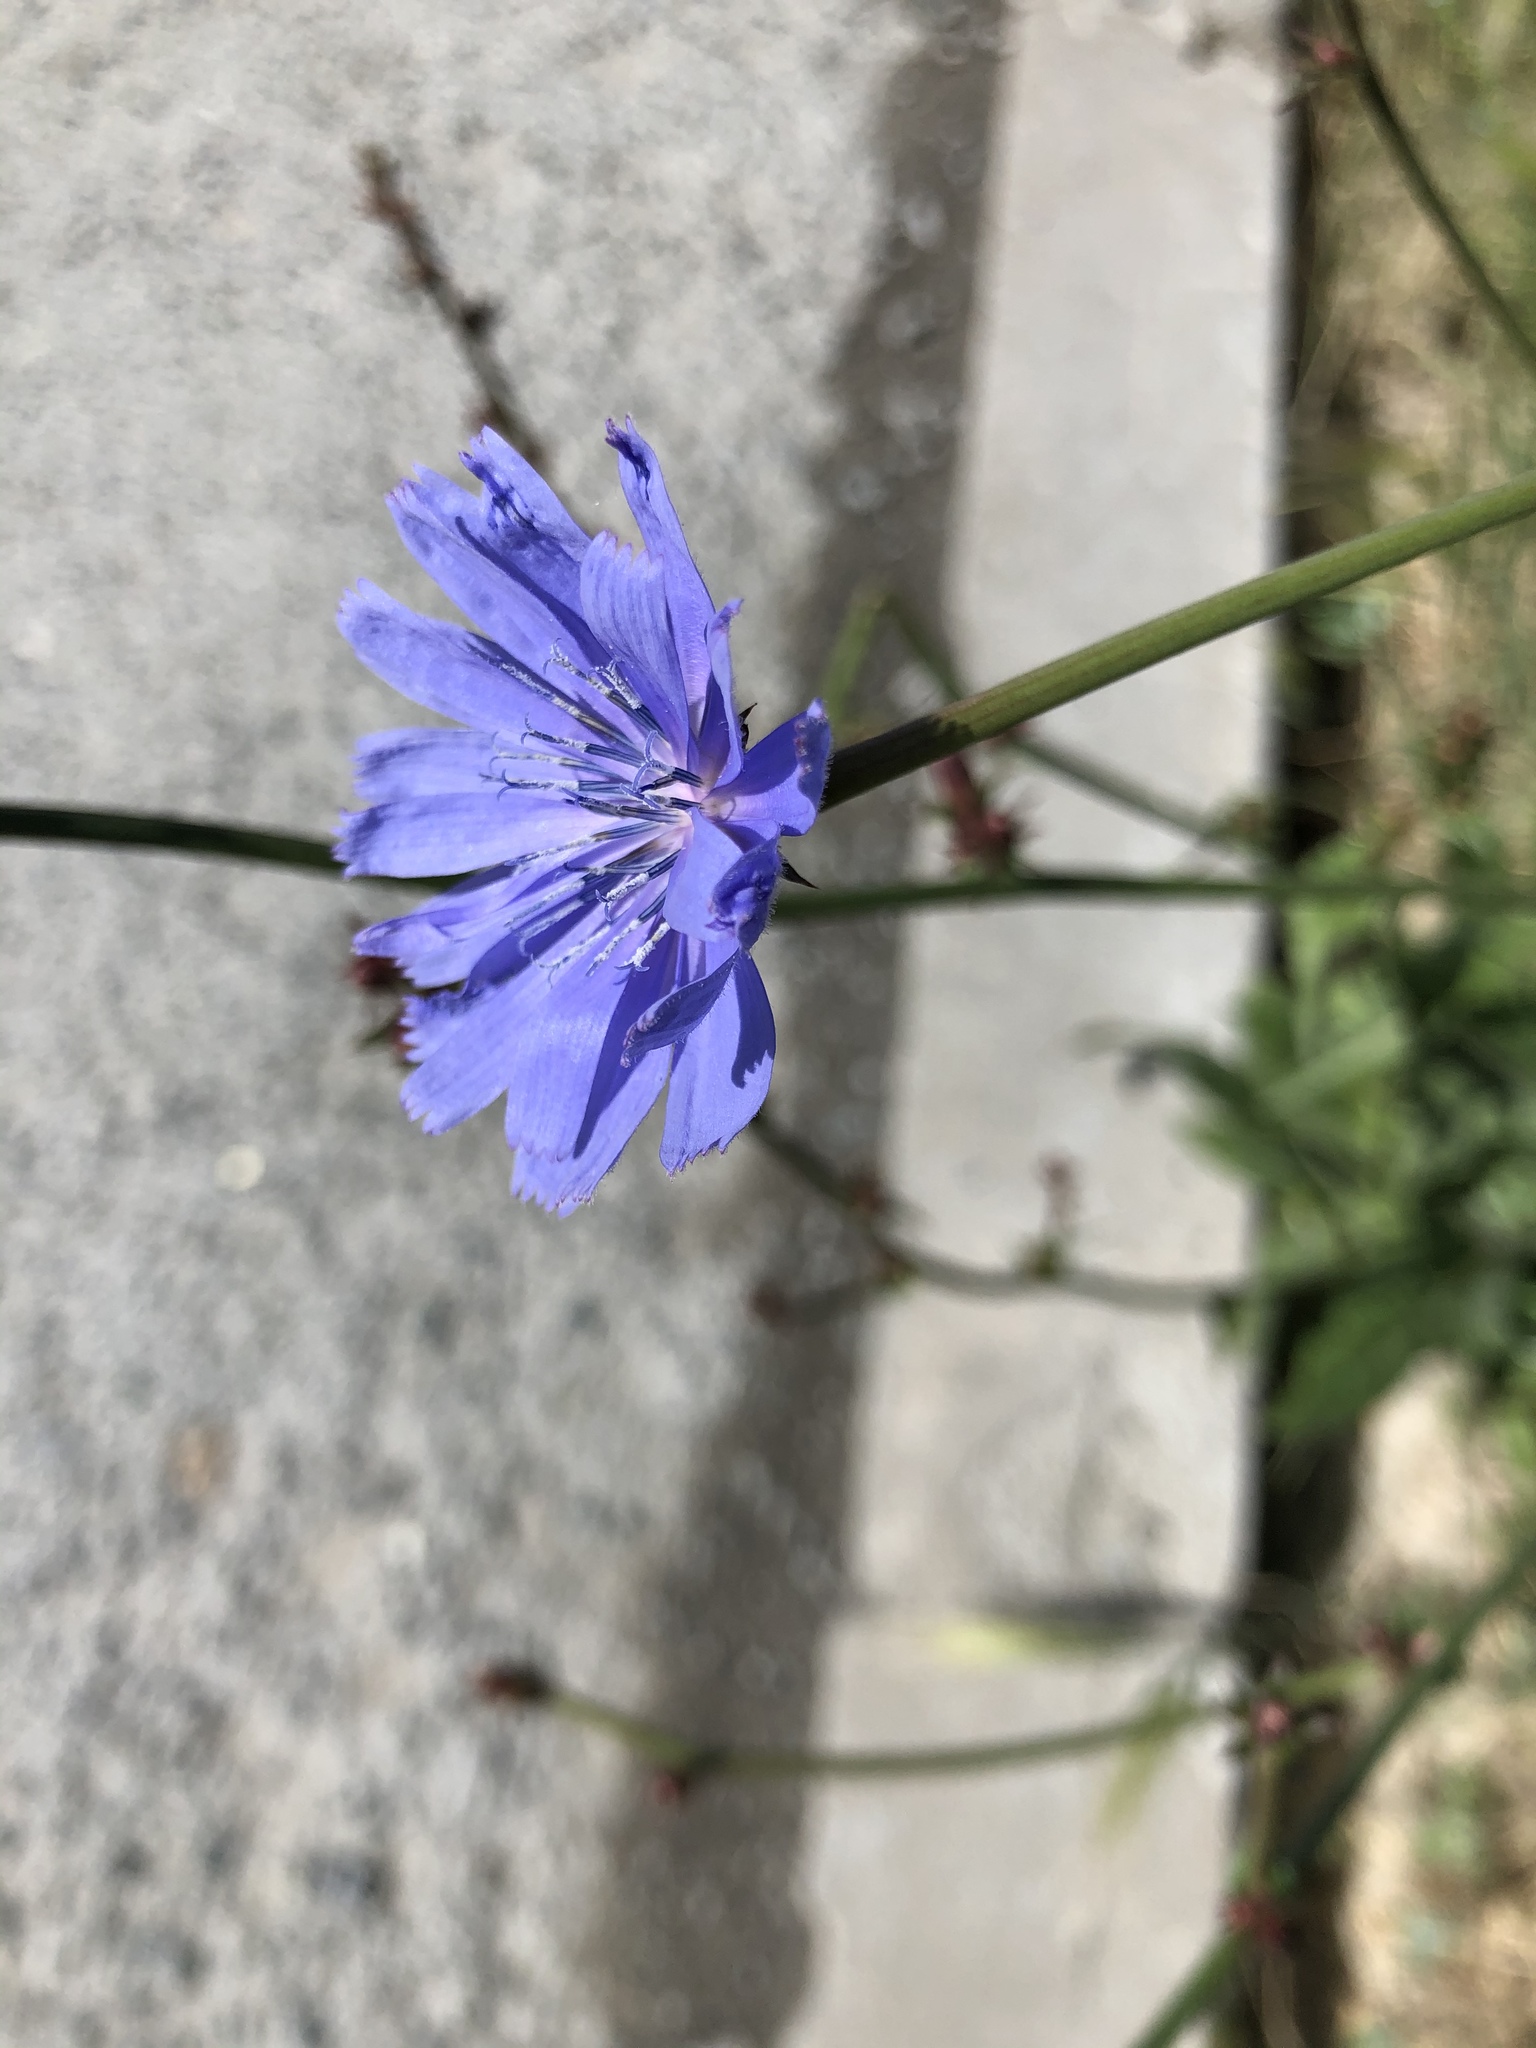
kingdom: Plantae
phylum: Tracheophyta
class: Magnoliopsida
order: Asterales
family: Asteraceae
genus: Cichorium
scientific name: Cichorium intybus
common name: Chicory
